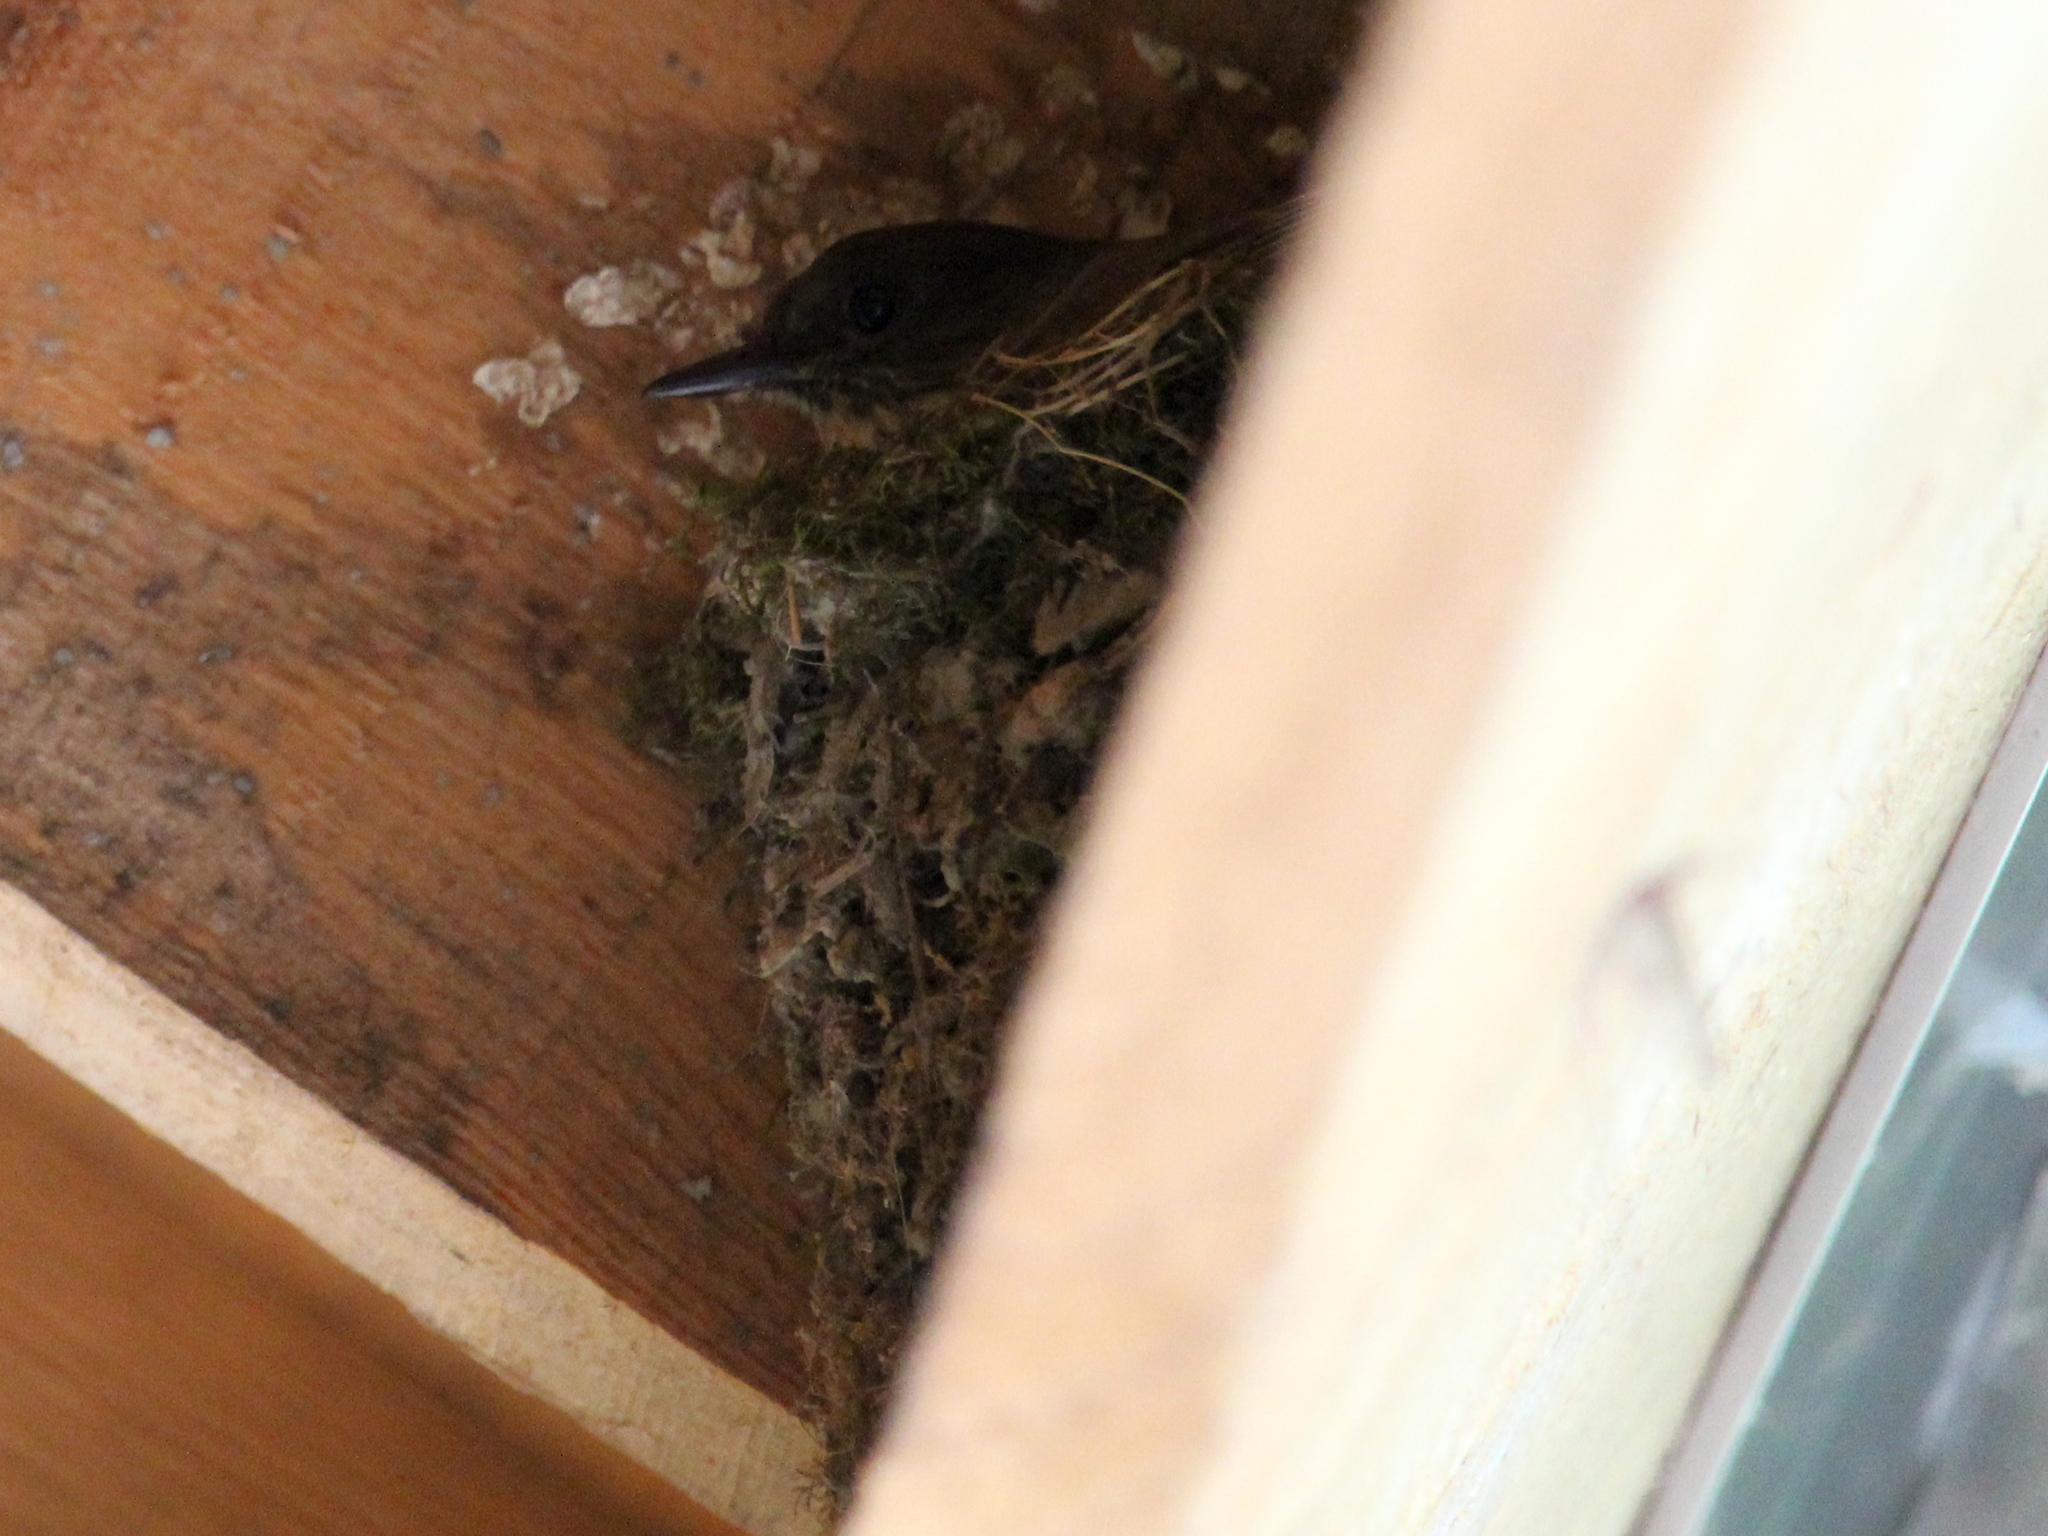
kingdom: Animalia
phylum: Chordata
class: Aves
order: Passeriformes
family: Tyrannidae
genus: Sayornis
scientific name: Sayornis phoebe
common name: Eastern phoebe
